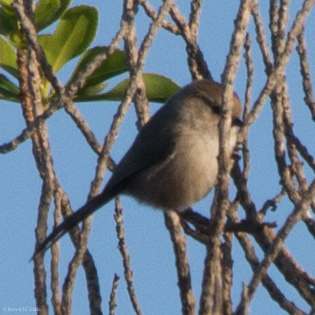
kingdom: Animalia
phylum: Chordata
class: Aves
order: Passeriformes
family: Aegithalidae
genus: Psaltriparus
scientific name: Psaltriparus minimus
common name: American bushtit
